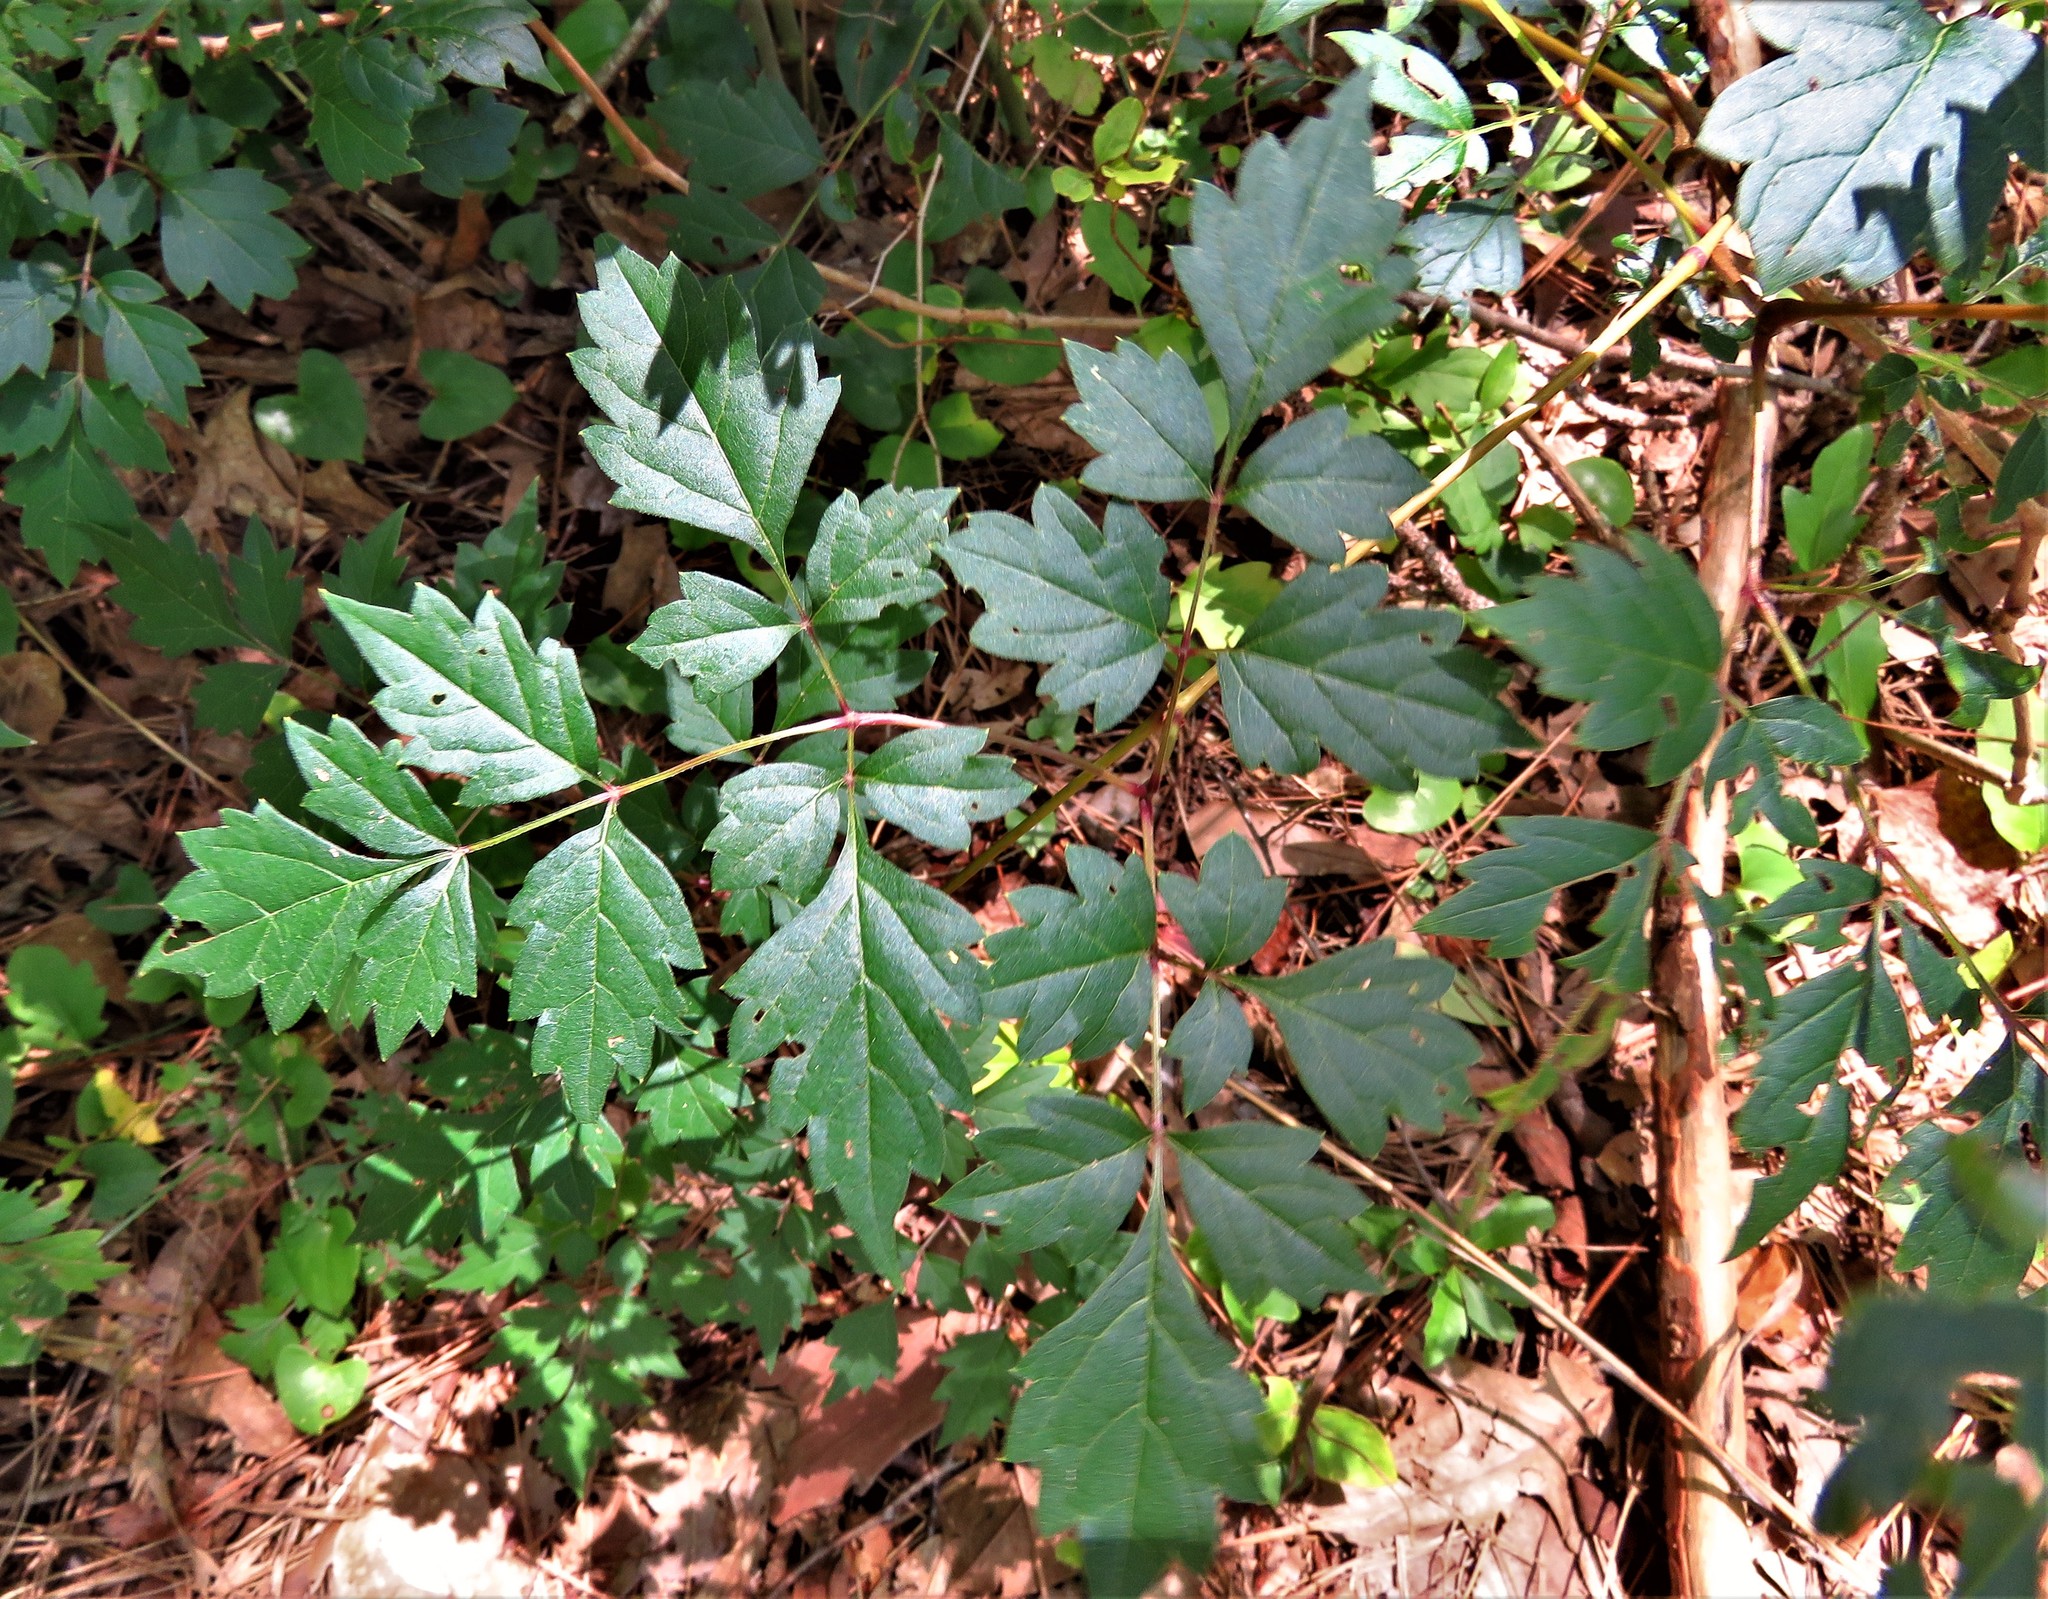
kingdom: Plantae
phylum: Tracheophyta
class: Magnoliopsida
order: Vitales
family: Vitaceae
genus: Nekemias
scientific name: Nekemias arborea
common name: Peppervine
